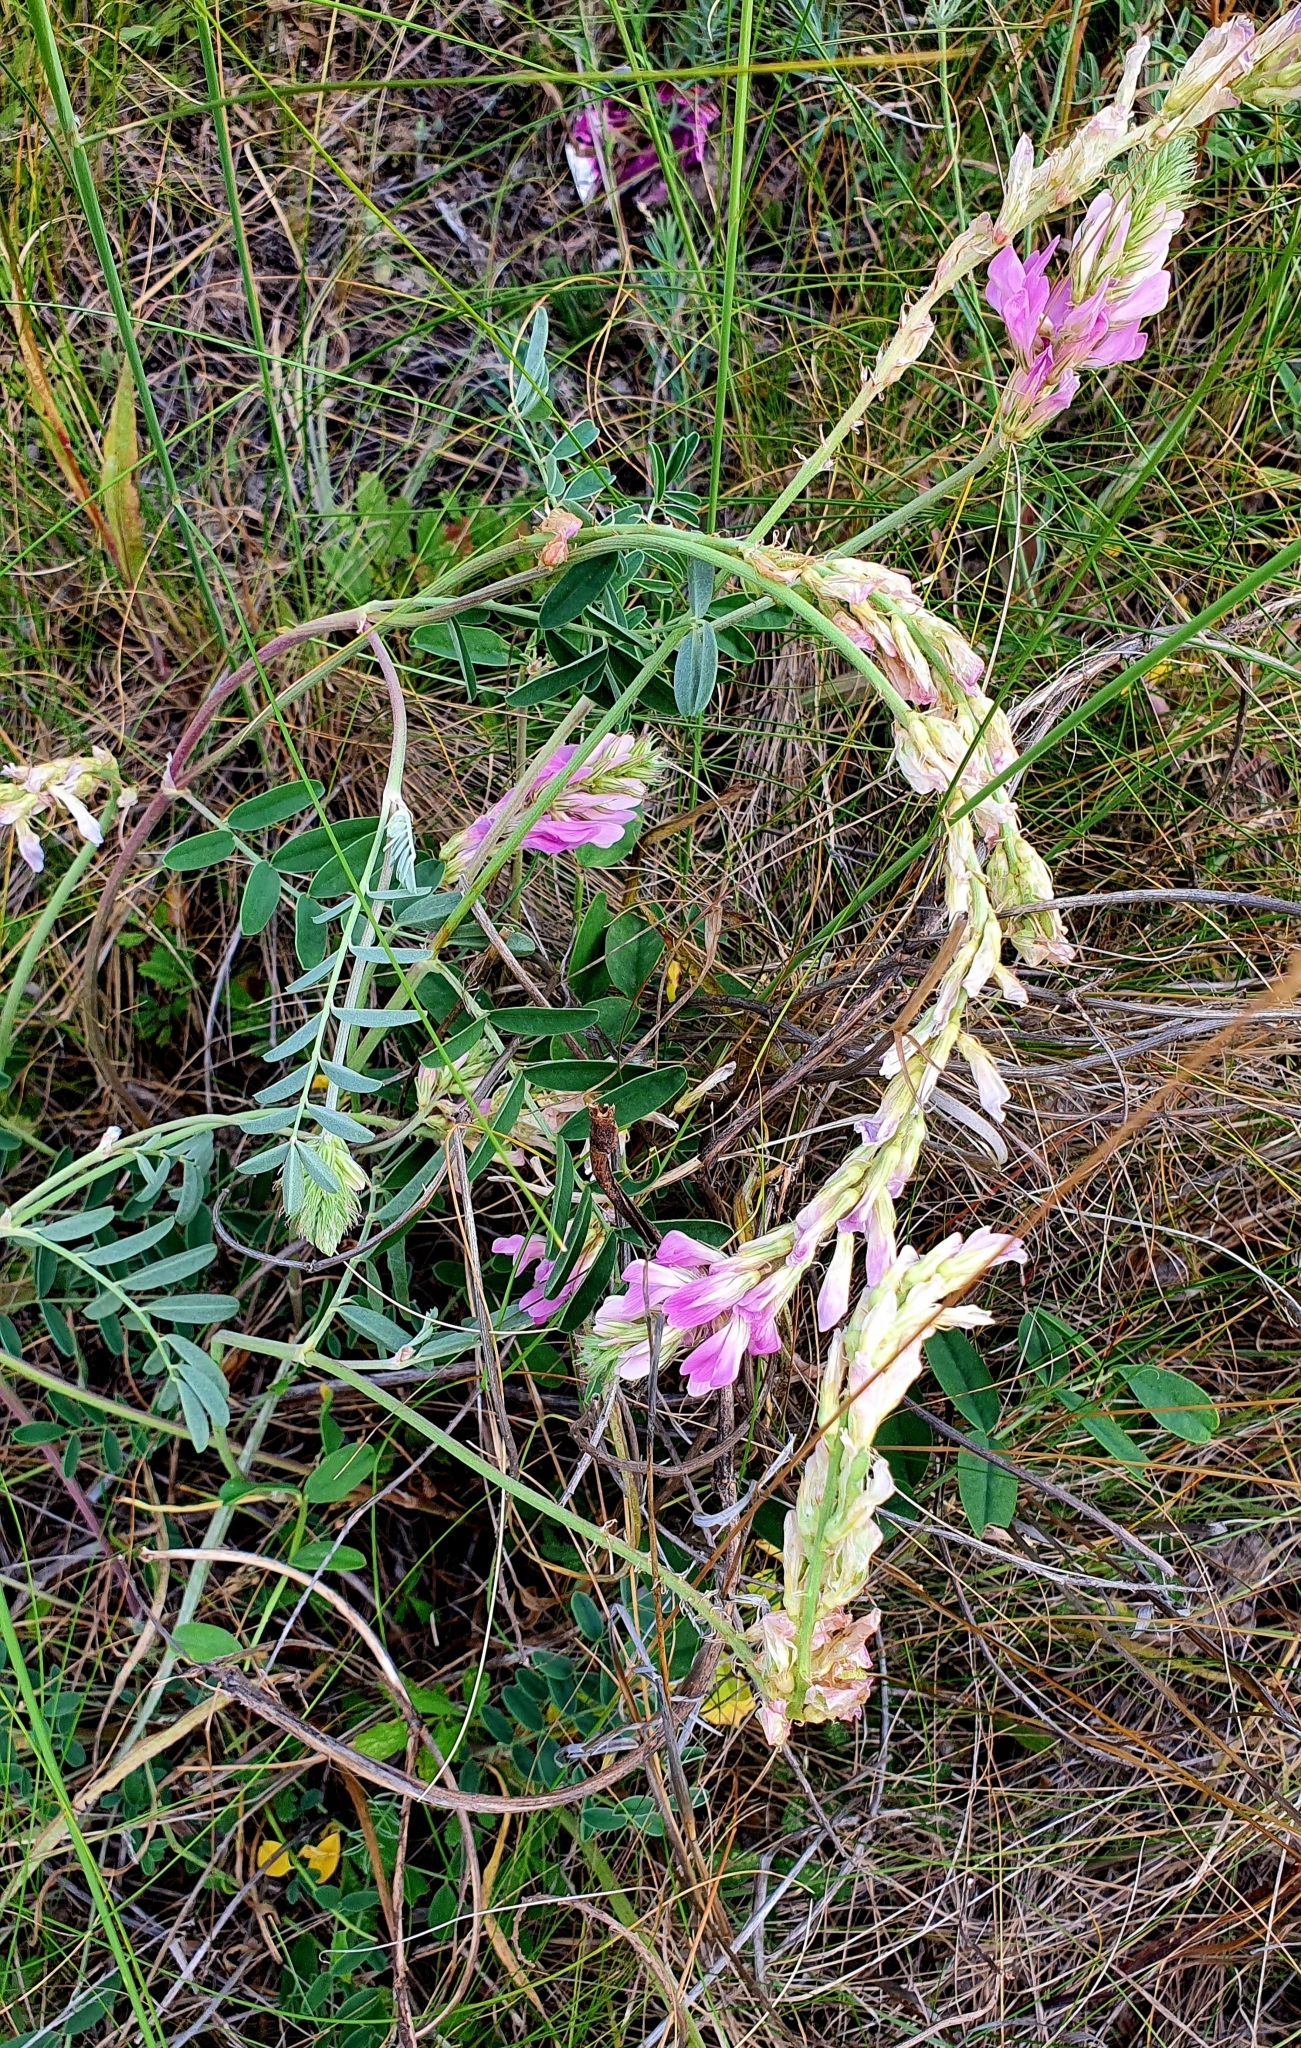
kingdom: Plantae
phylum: Tracheophyta
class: Magnoliopsida
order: Fabales
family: Fabaceae
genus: Hedysarum
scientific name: Hedysarum gmelinii
